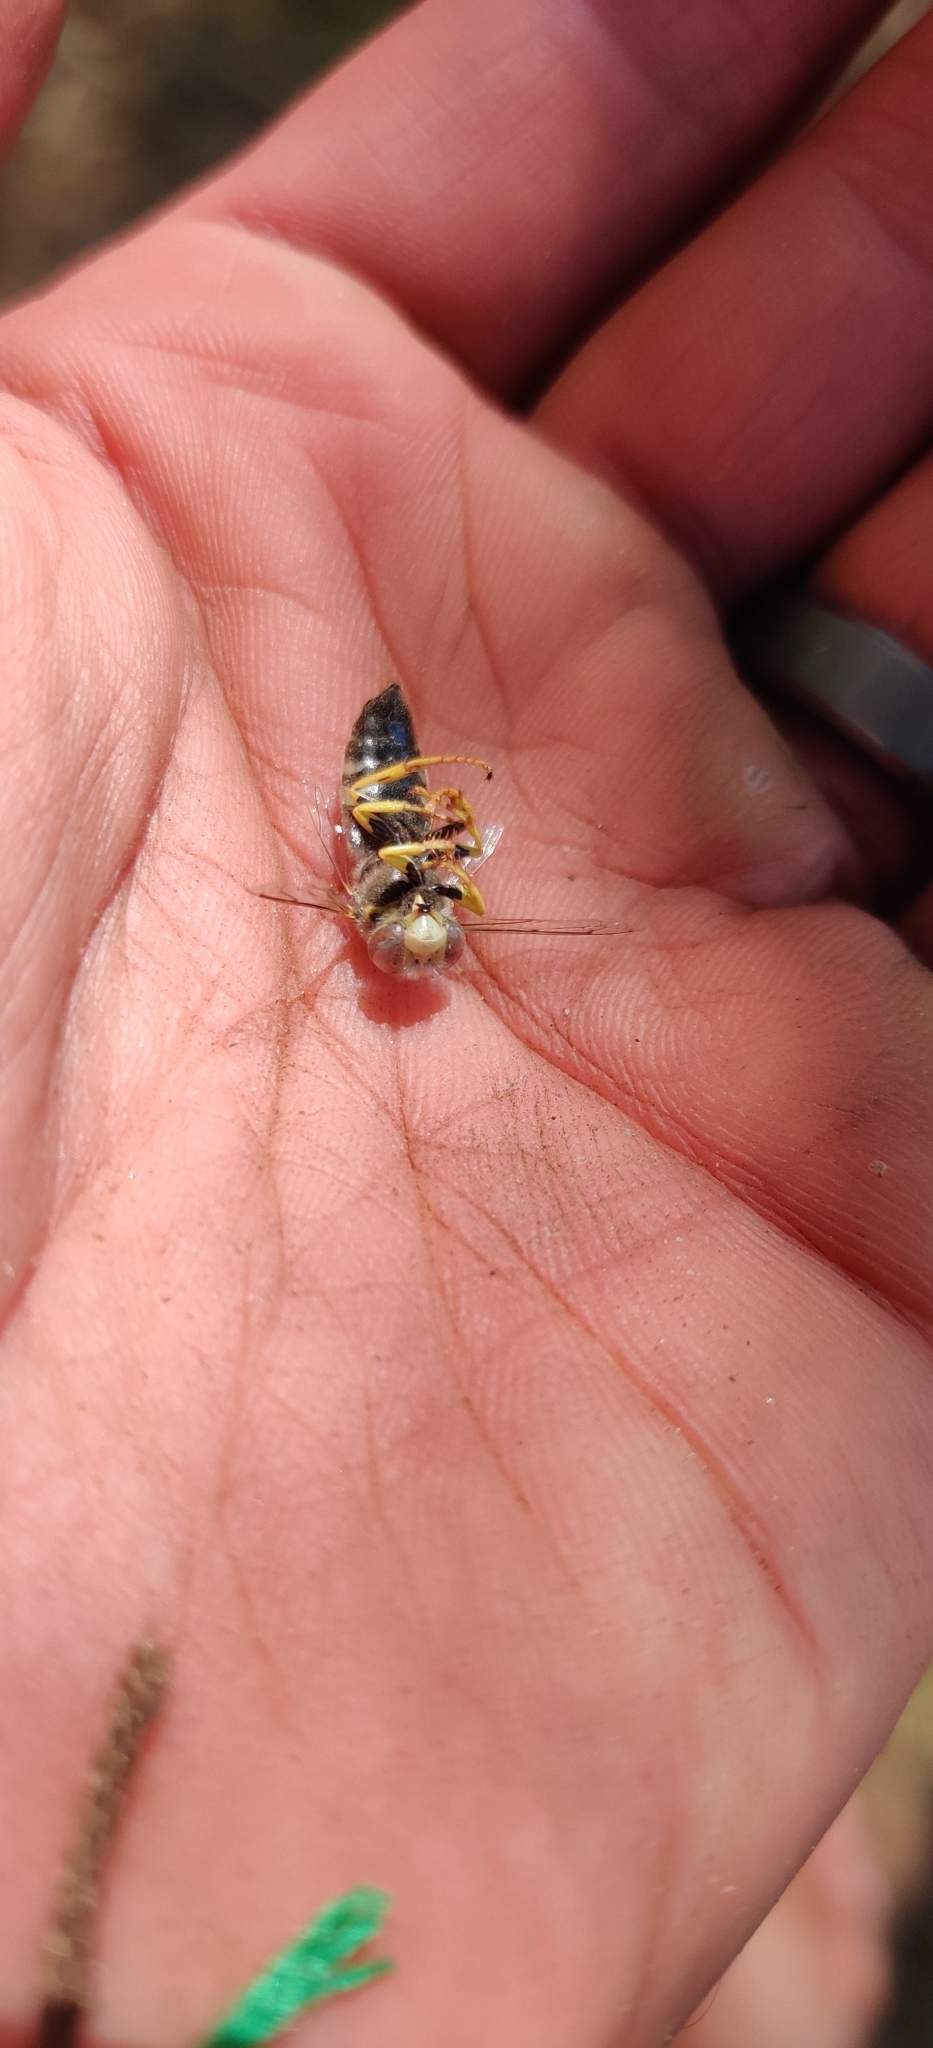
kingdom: Animalia
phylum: Arthropoda
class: Insecta
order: Hymenoptera
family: Crabronidae
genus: Bembix
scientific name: Bembix americana
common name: American sand wasp
